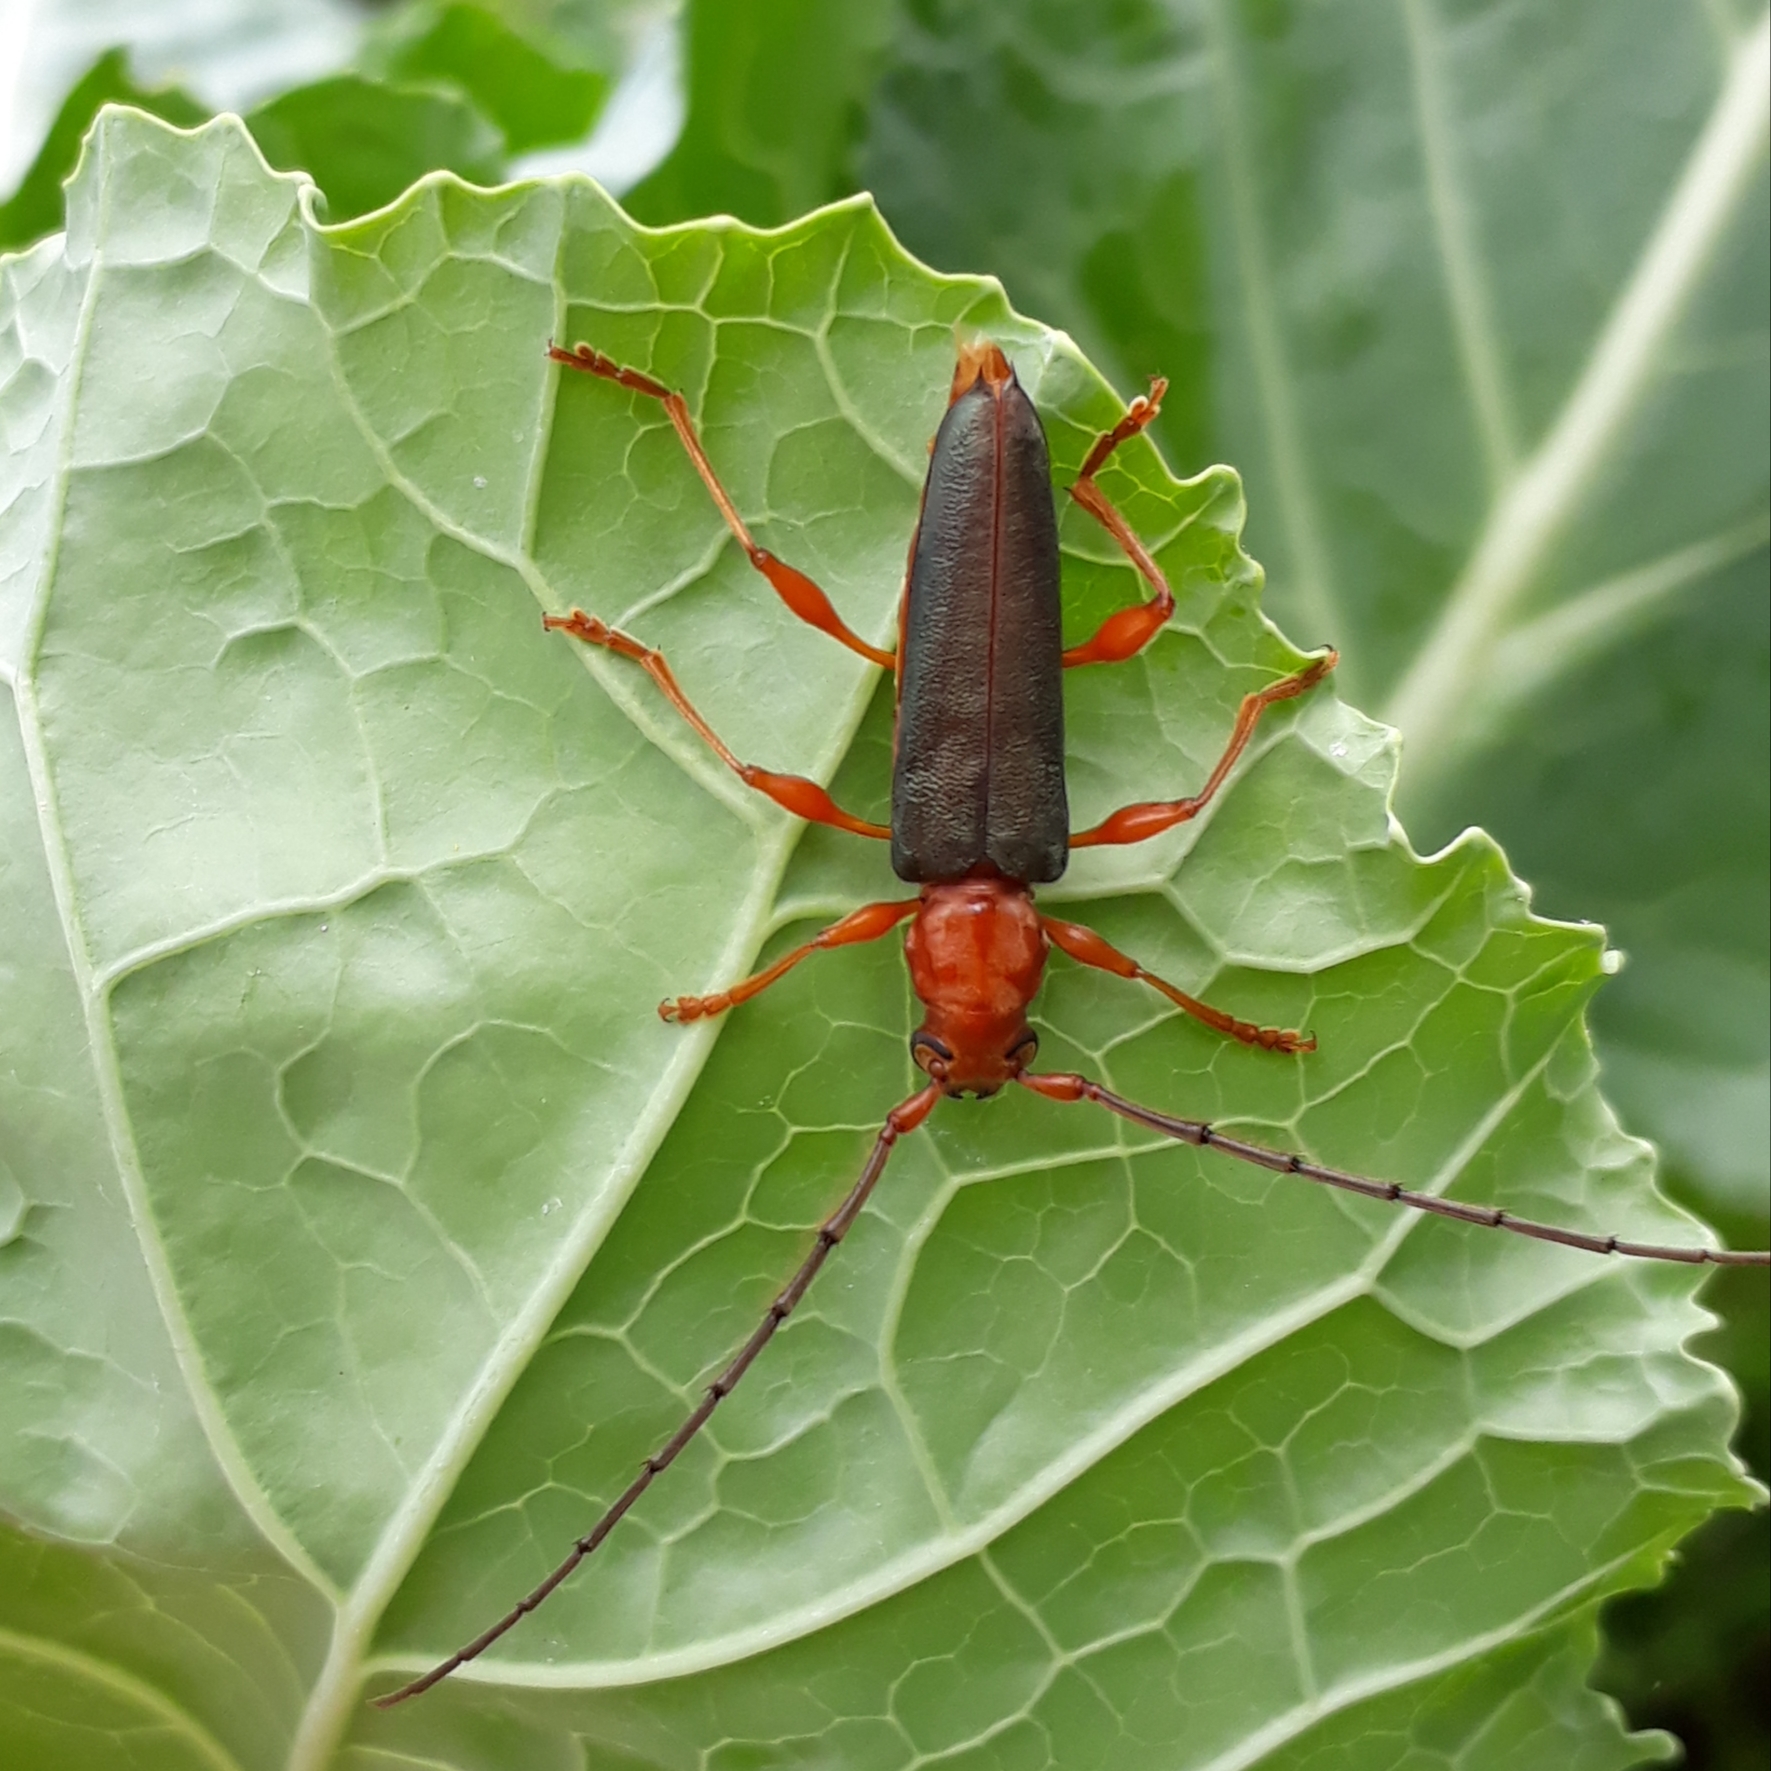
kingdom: Animalia
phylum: Arthropoda
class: Insecta
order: Coleoptera
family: Cerambycidae
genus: Sphaerion
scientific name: Sphaerion cyanipenne
